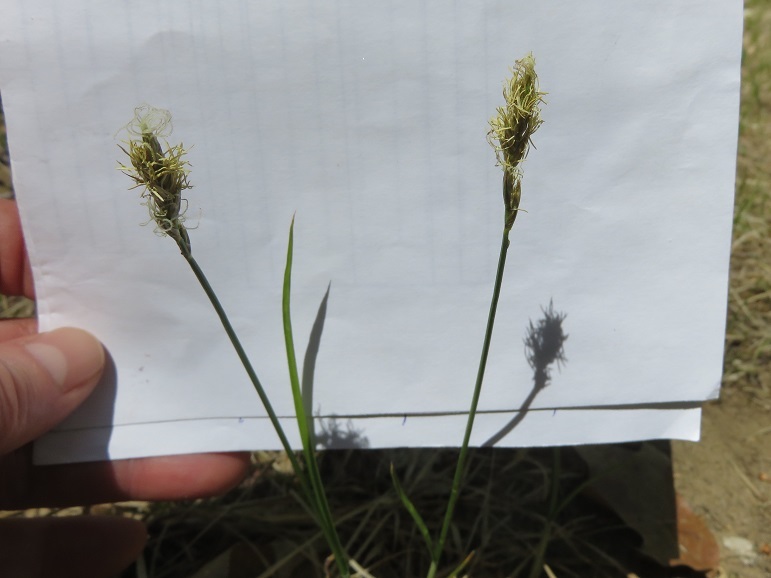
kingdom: Plantae
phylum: Tracheophyta
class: Liliopsida
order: Poales
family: Cyperaceae
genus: Carex
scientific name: Carex siccata
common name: Dry sedge
